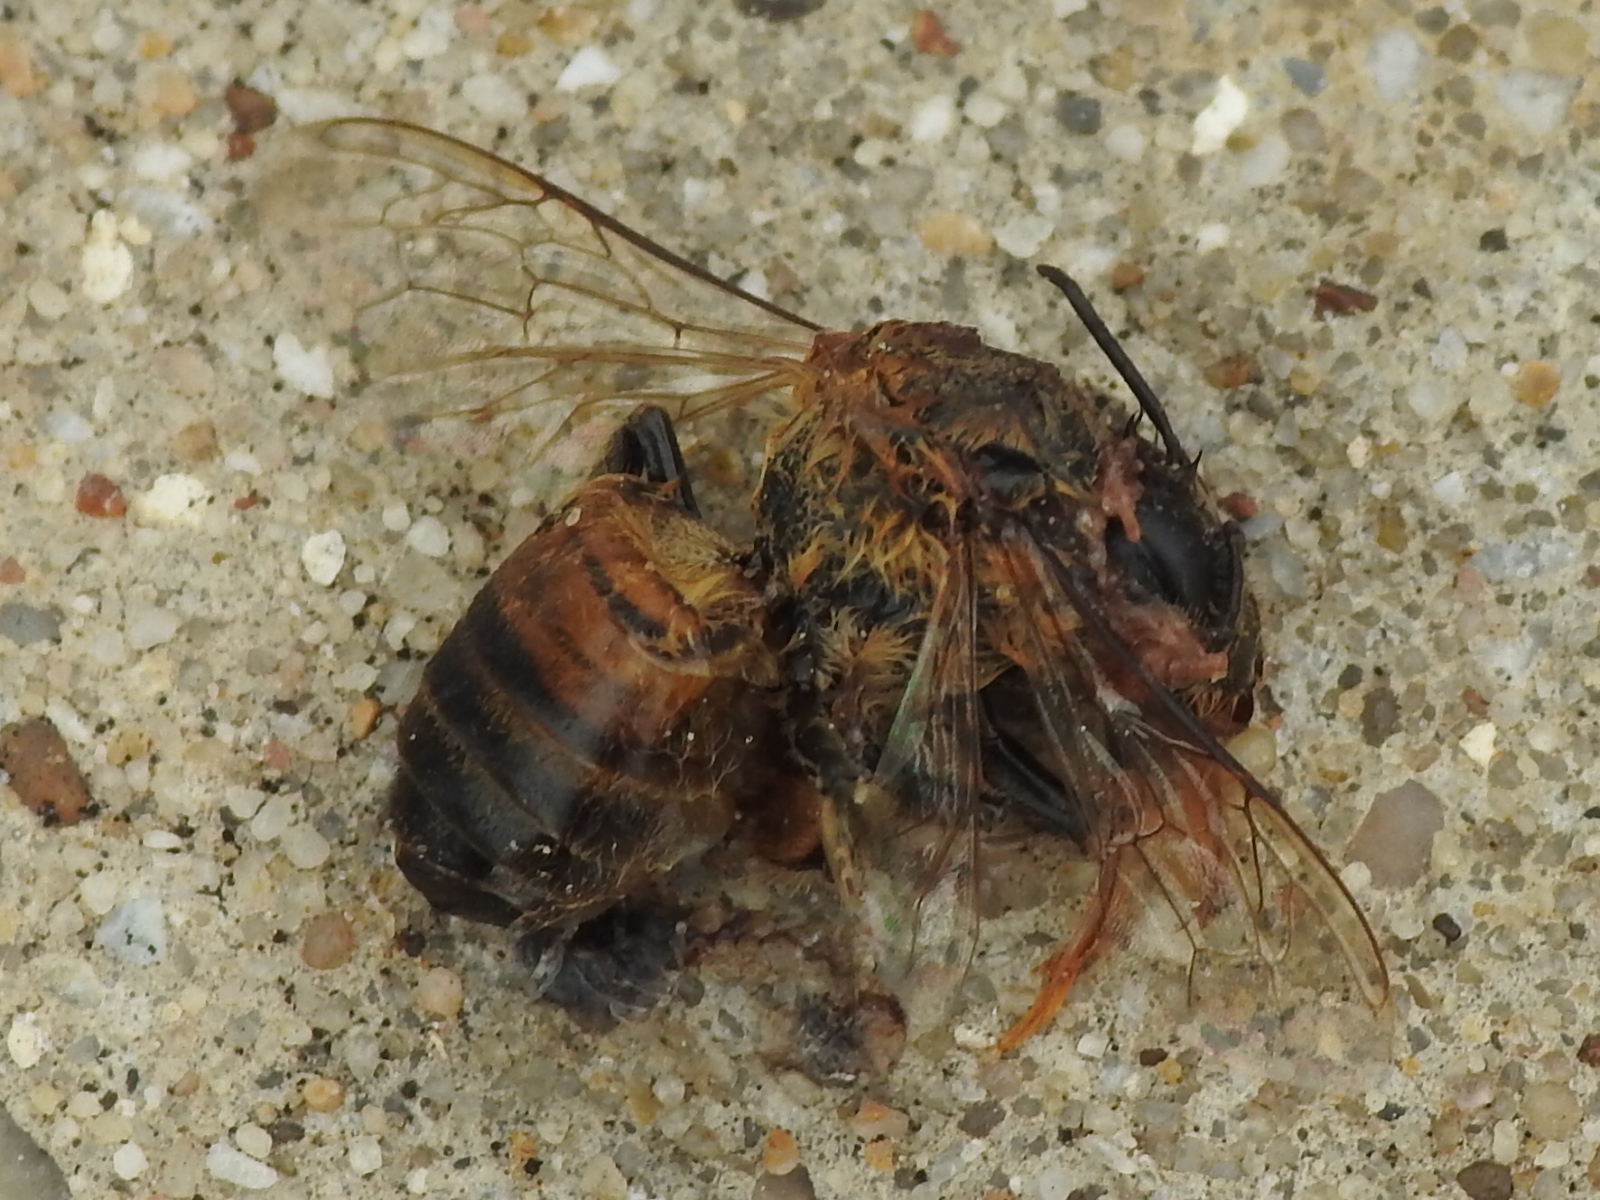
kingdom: Animalia
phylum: Arthropoda
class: Insecta
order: Hymenoptera
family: Apidae
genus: Apis
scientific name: Apis mellifera
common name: Honey bee
